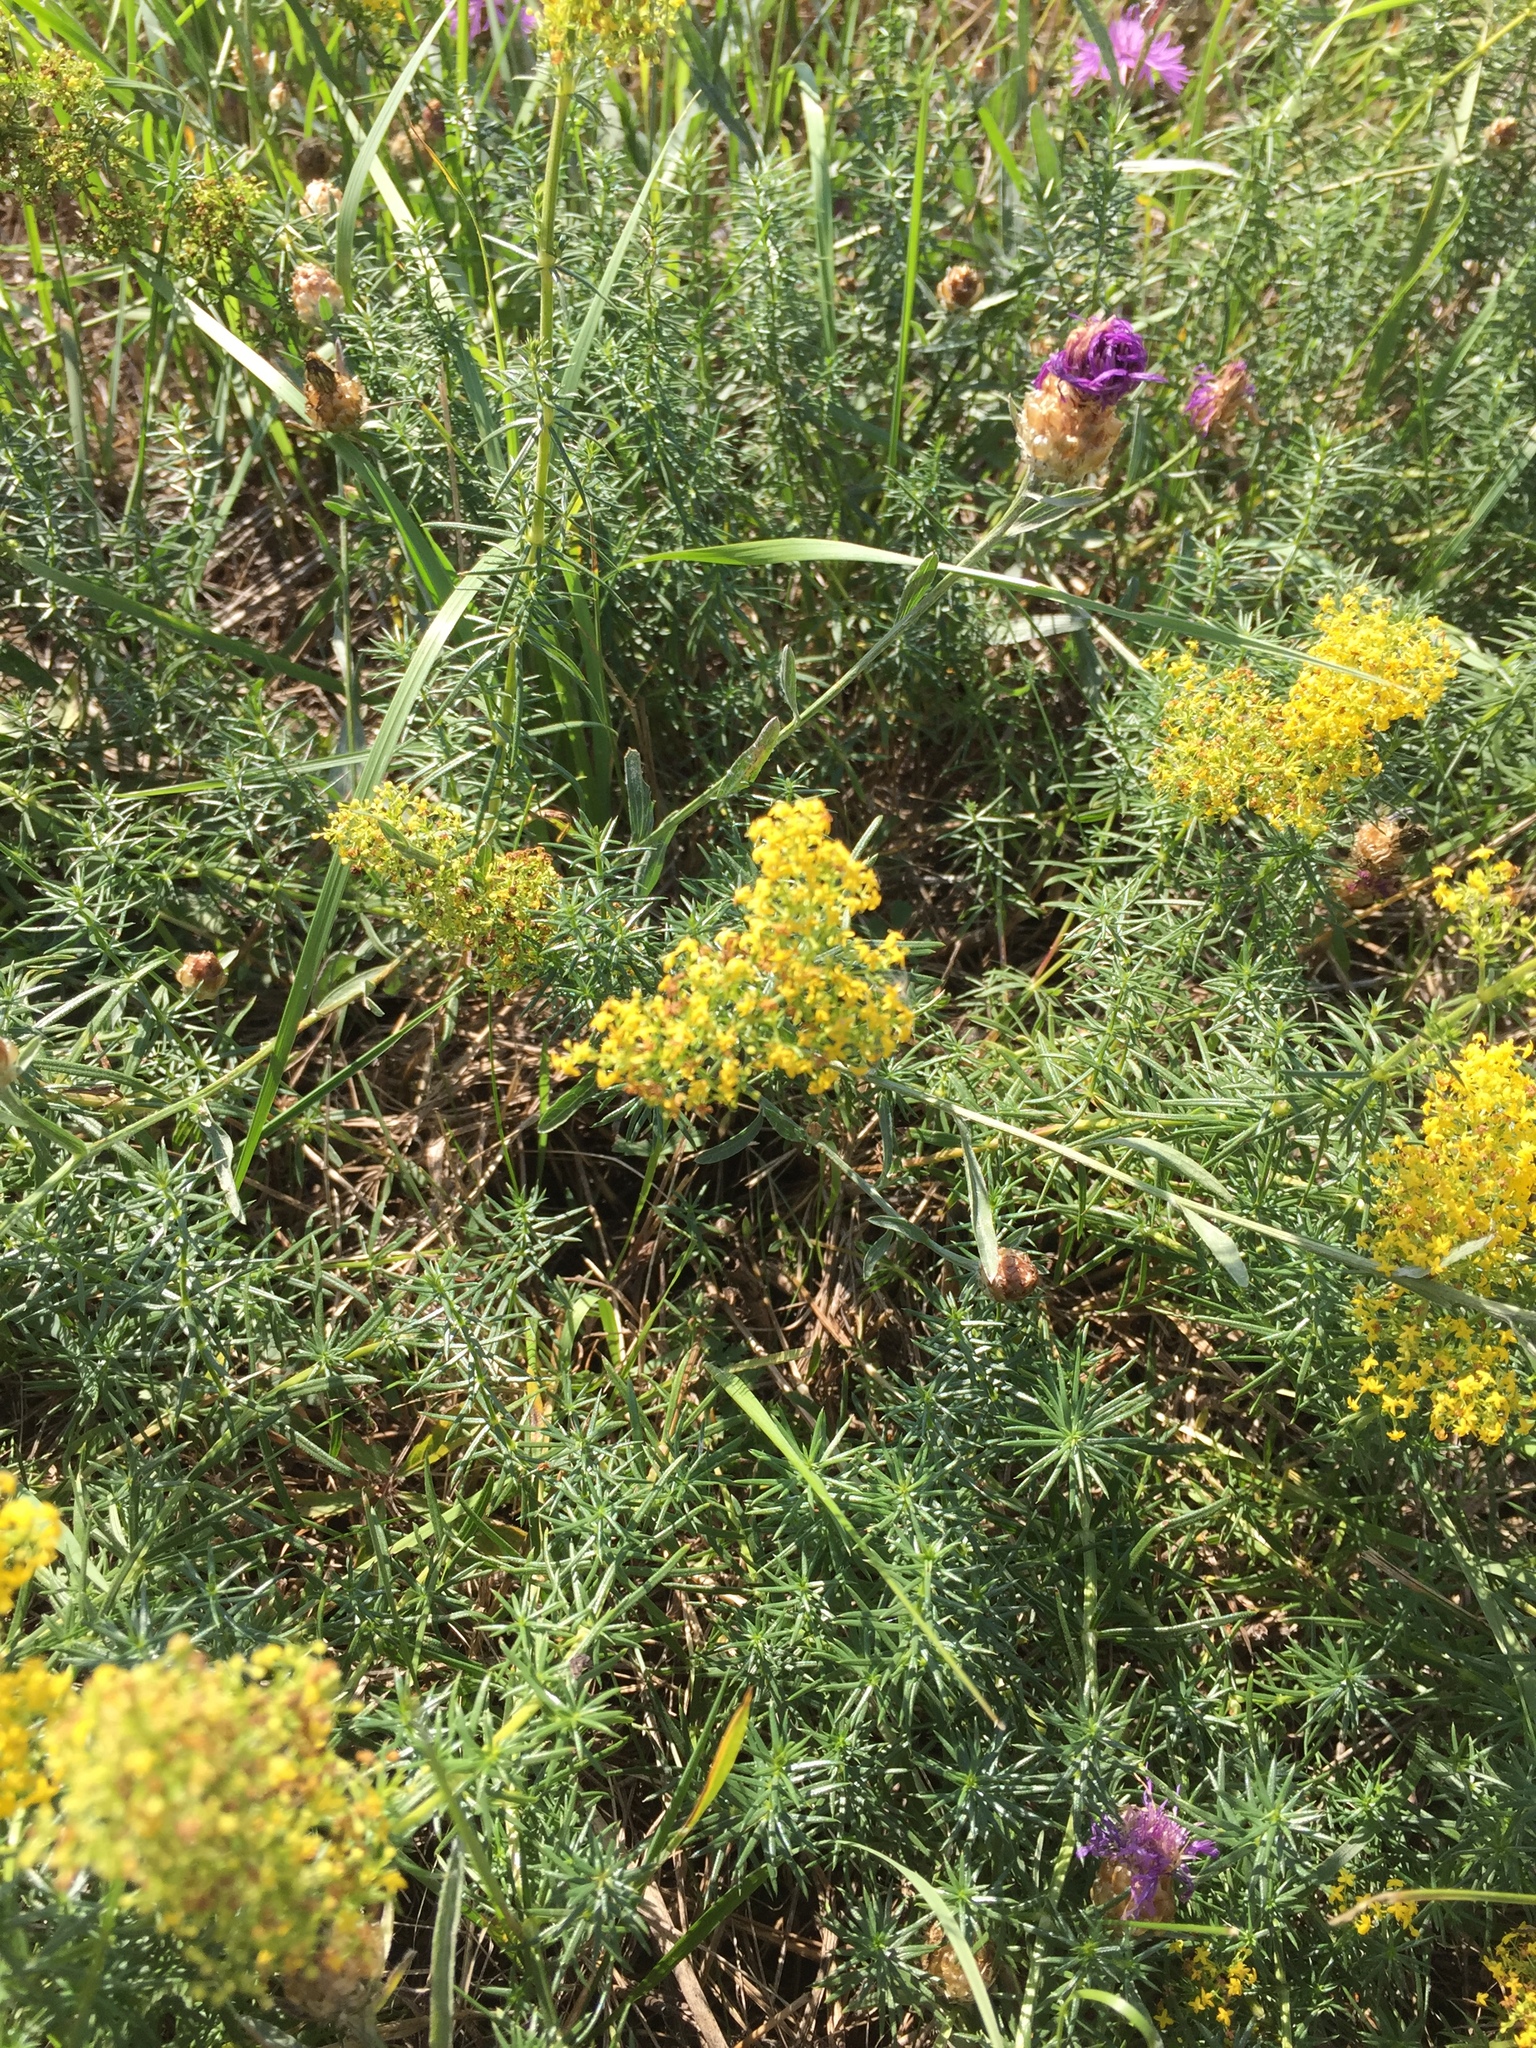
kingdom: Plantae
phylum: Tracheophyta
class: Magnoliopsida
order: Gentianales
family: Rubiaceae
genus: Galium
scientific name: Galium verum
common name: Lady's bedstraw
